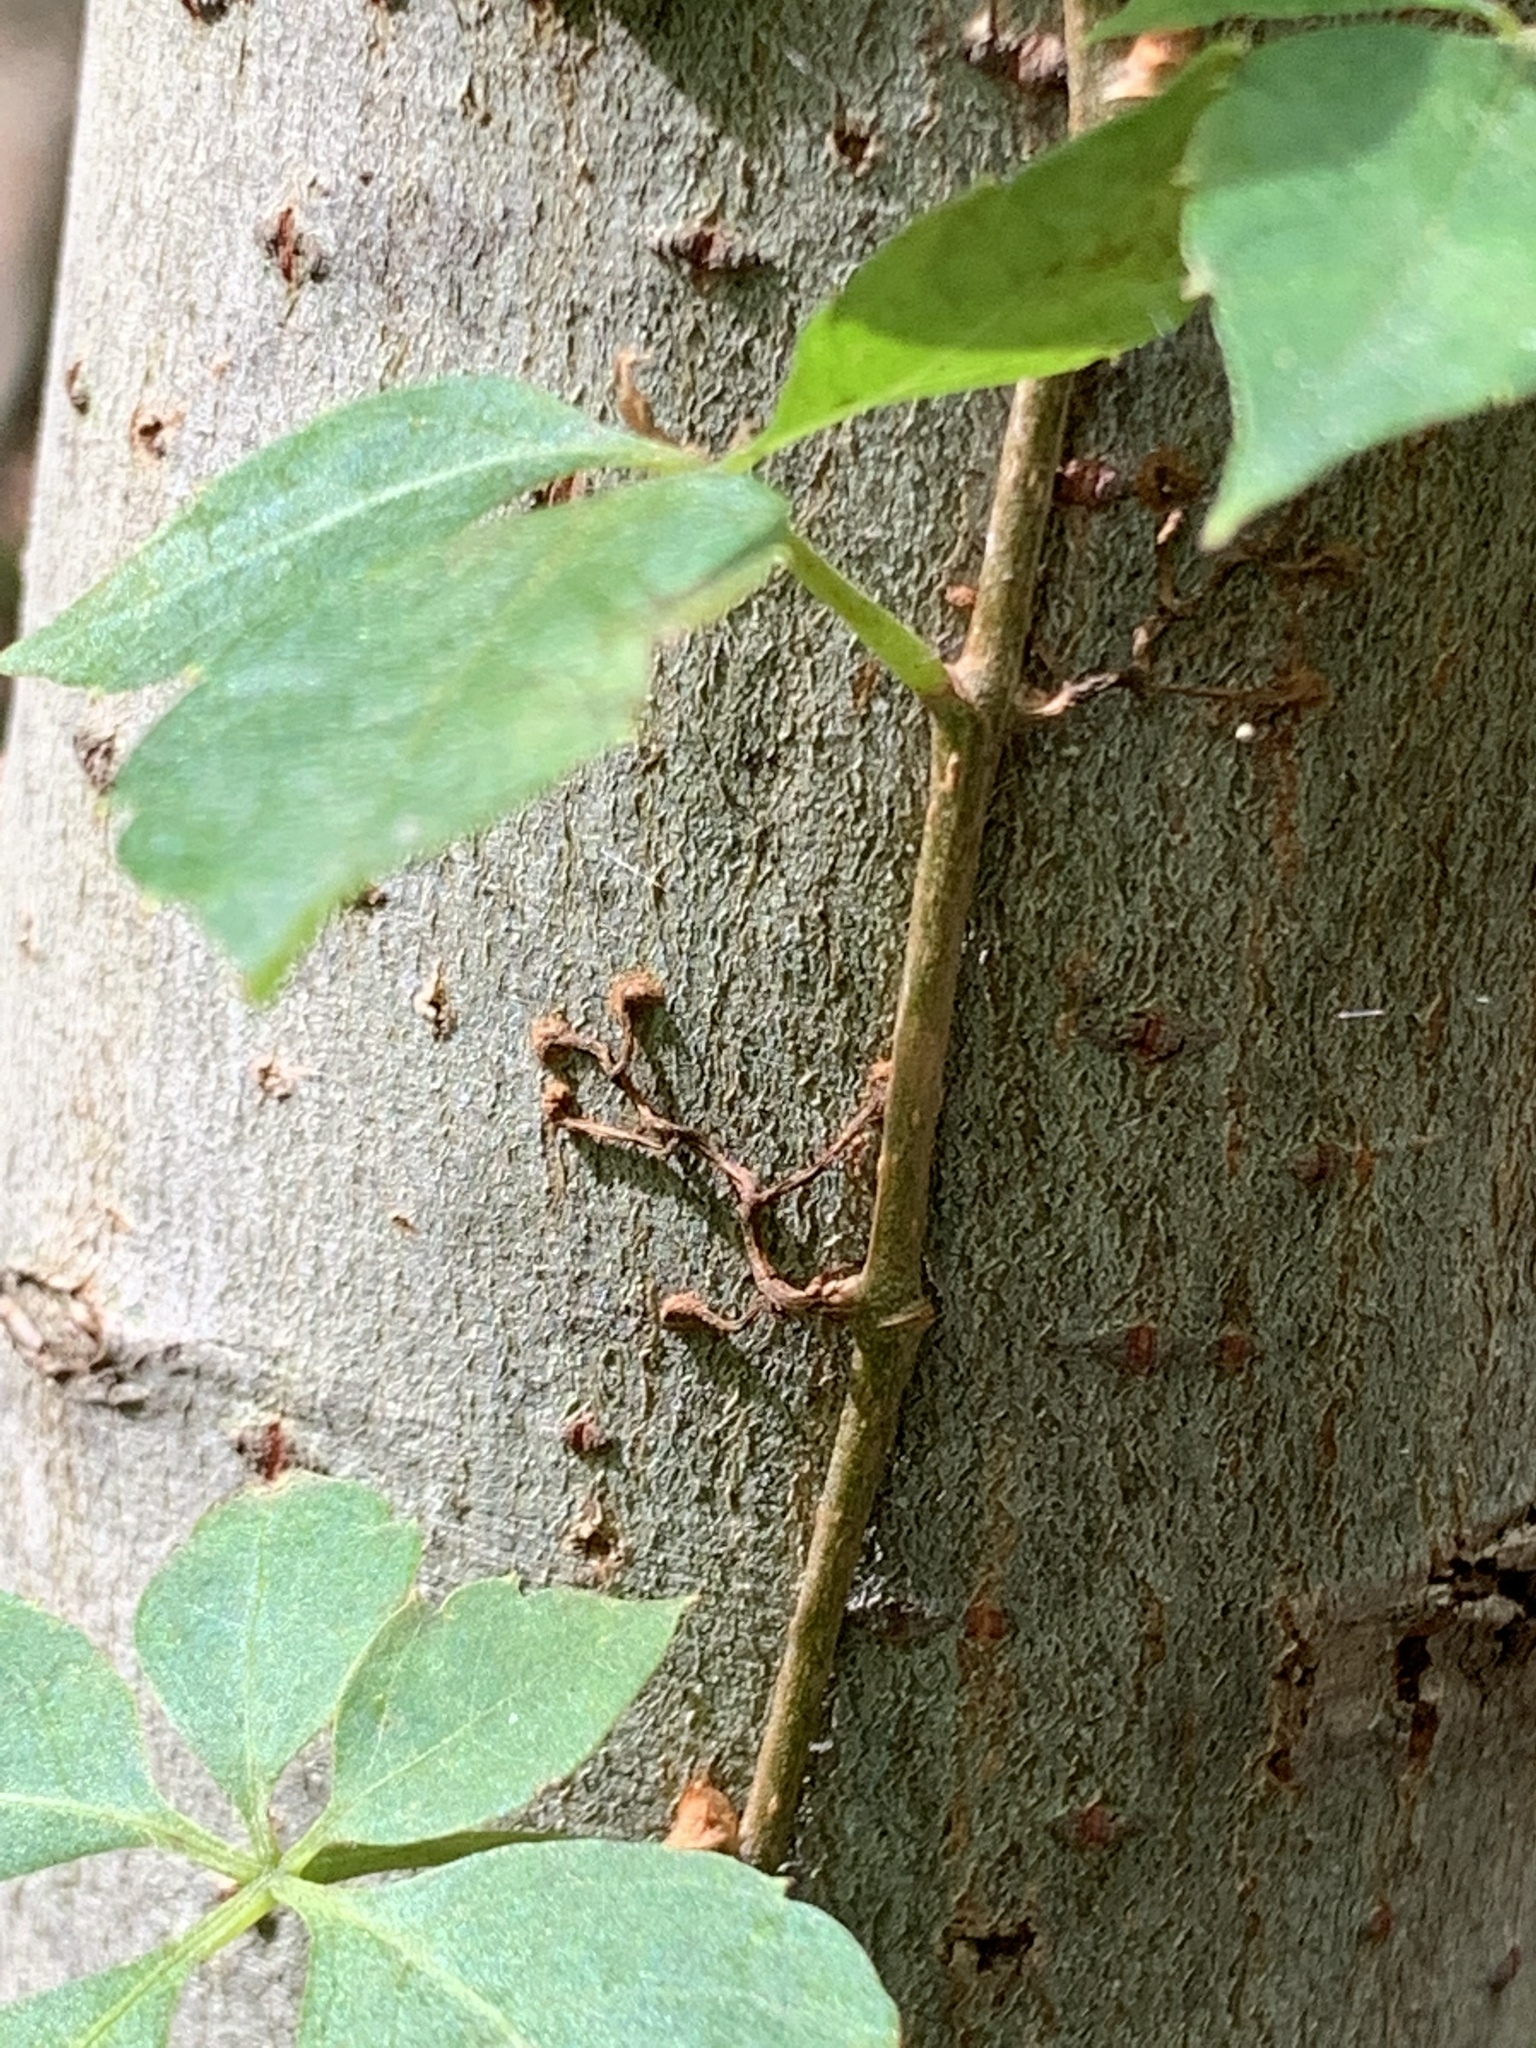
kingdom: Plantae
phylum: Tracheophyta
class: Magnoliopsida
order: Vitales
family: Vitaceae
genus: Parthenocissus
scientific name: Parthenocissus quinquefolia
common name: Virginia-creeper
